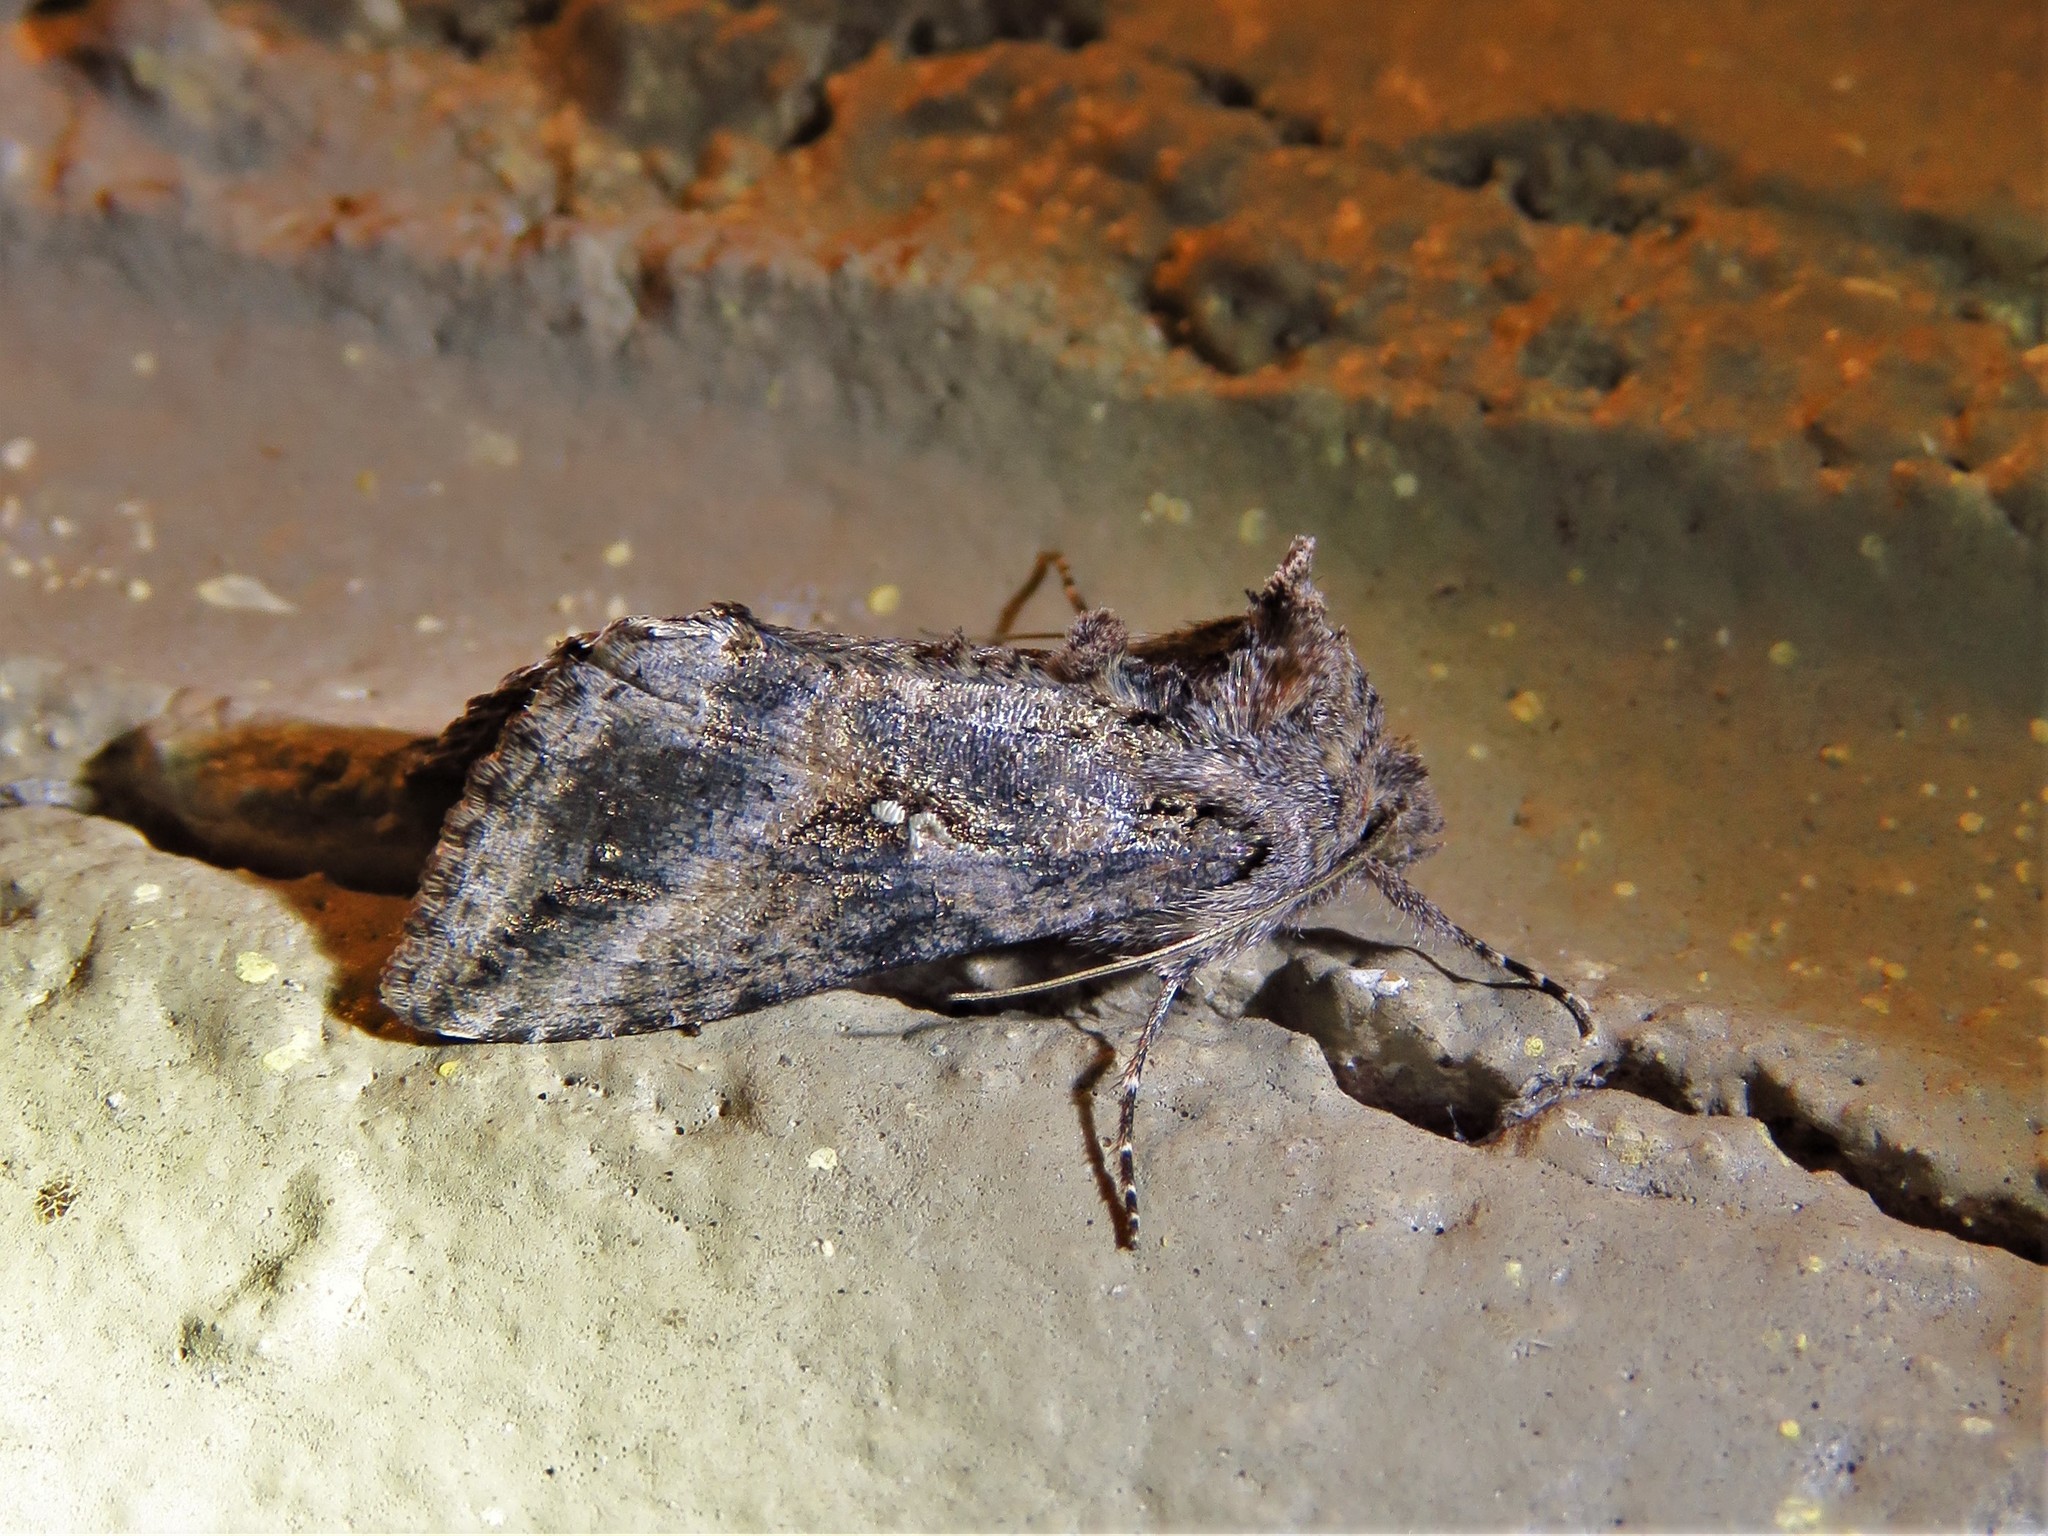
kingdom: Animalia
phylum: Arthropoda
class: Insecta
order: Lepidoptera
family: Noctuidae
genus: Rachiplusia
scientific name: Rachiplusia ou
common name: Gray looper moth
